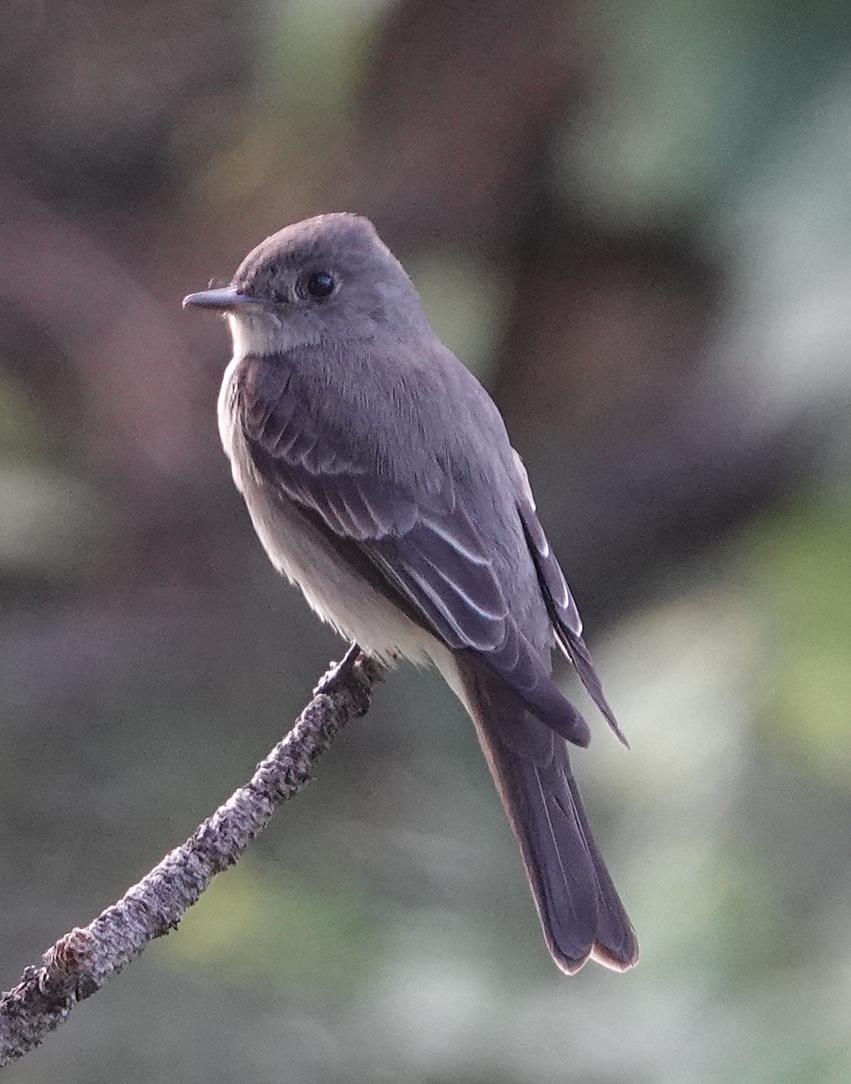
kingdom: Animalia
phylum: Chordata
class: Aves
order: Passeriformes
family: Tyrannidae
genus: Contopus
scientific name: Contopus sordidulus
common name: Western wood-pewee
